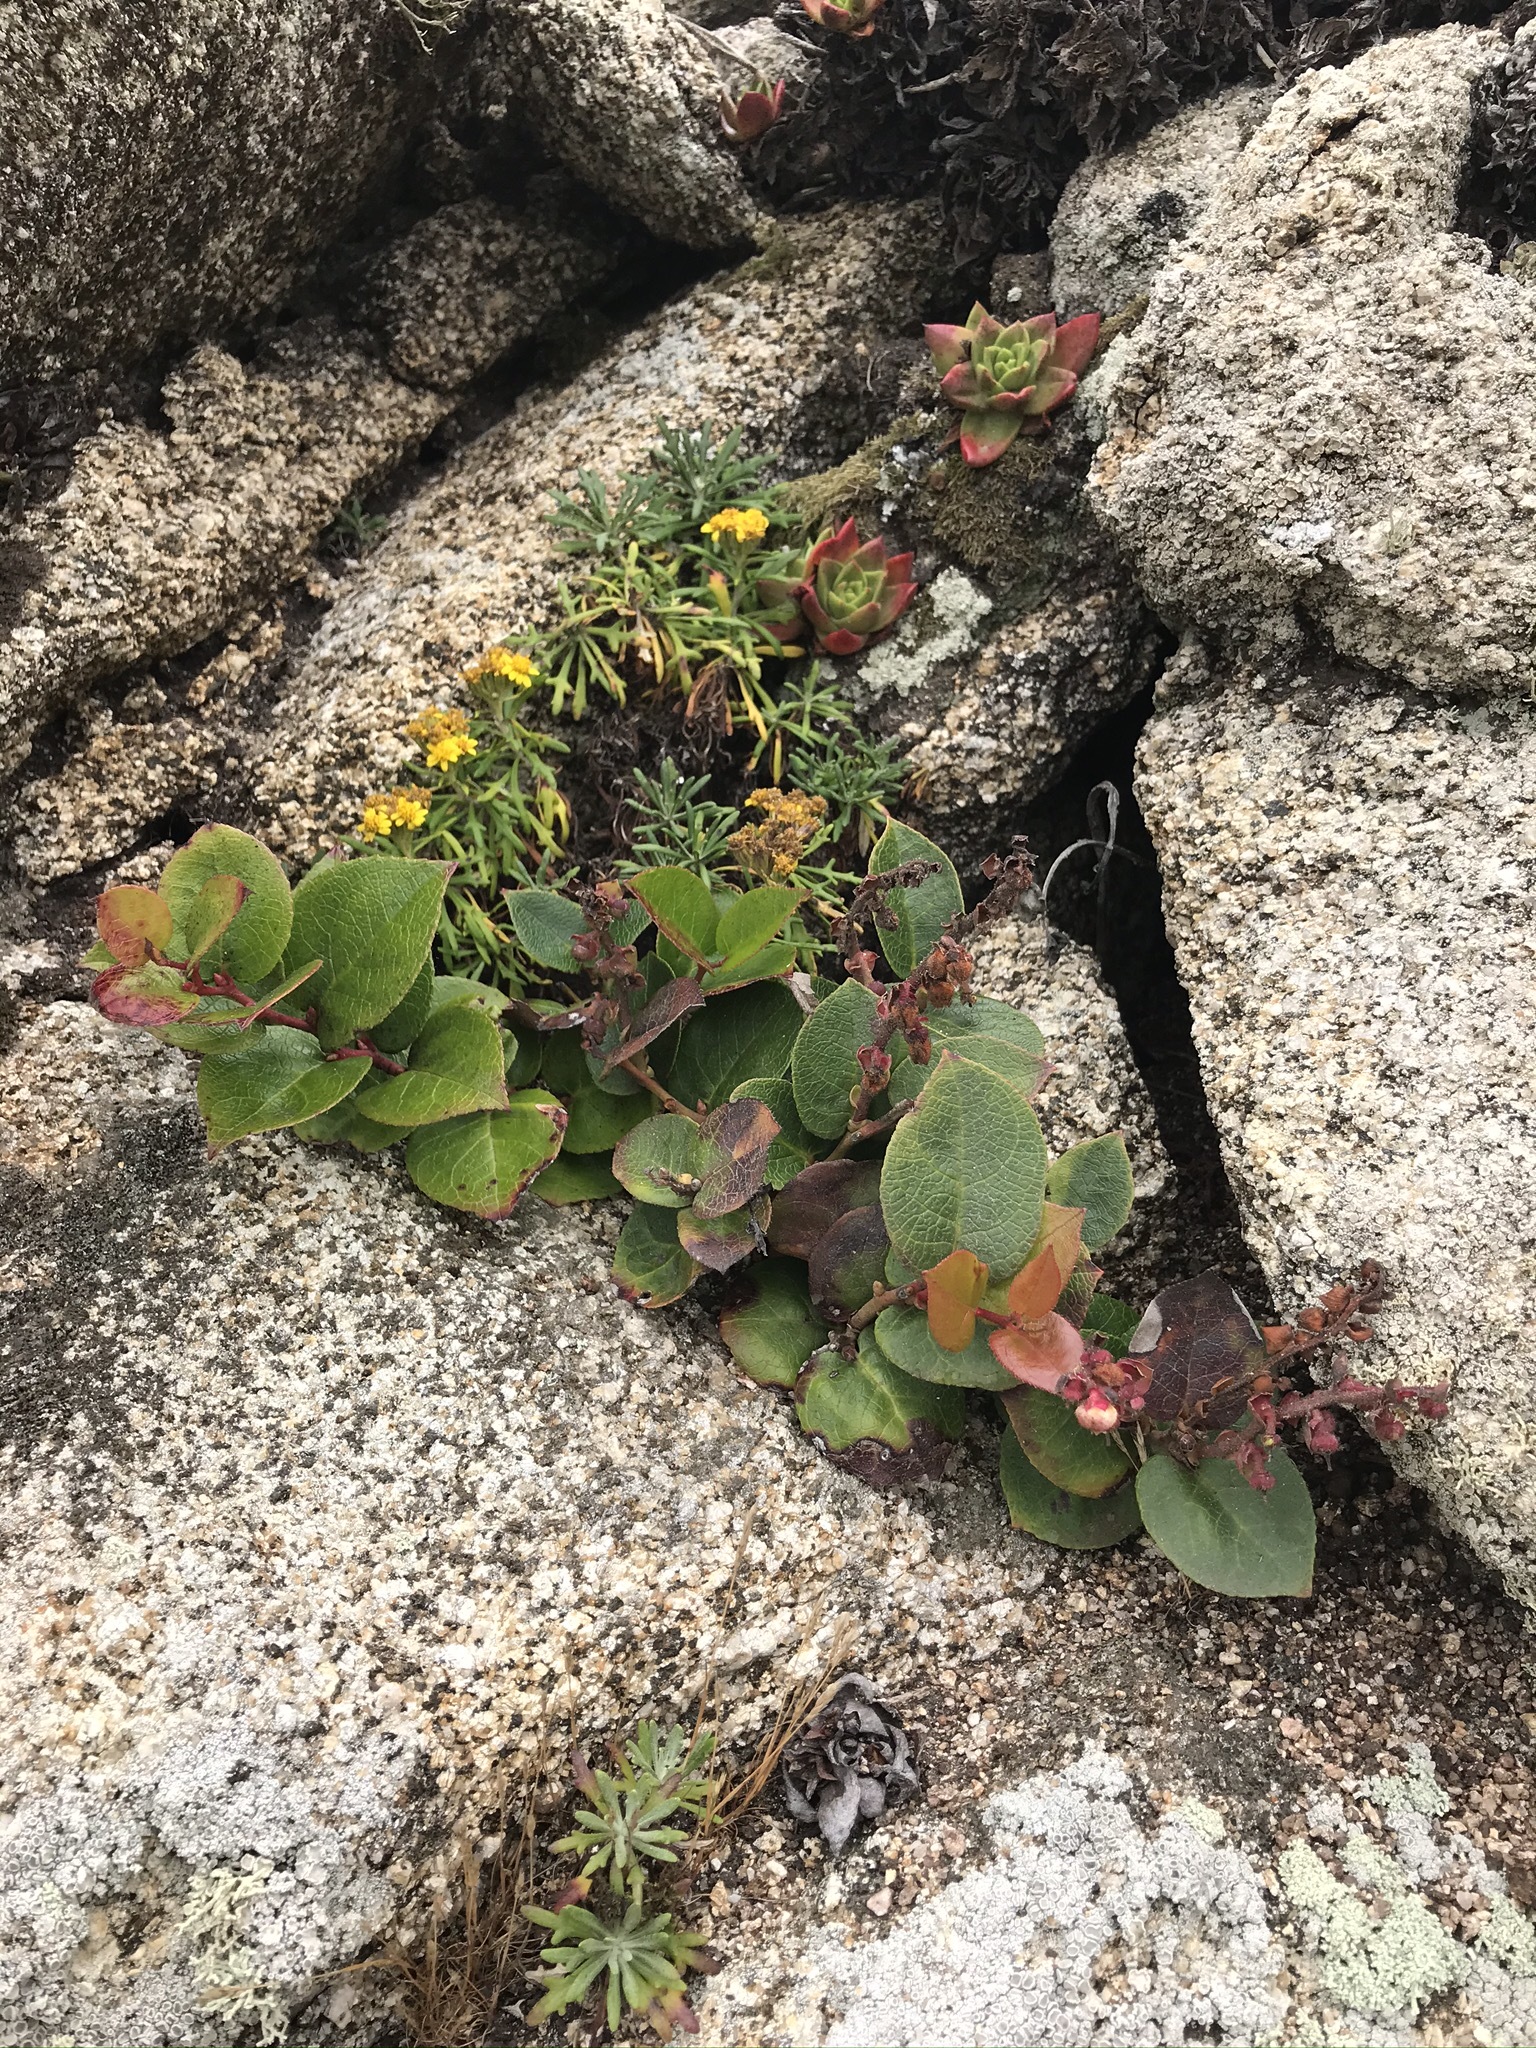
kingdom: Plantae
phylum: Tracheophyta
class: Magnoliopsida
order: Ericales
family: Ericaceae
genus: Gaultheria
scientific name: Gaultheria shallon
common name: Shallon
